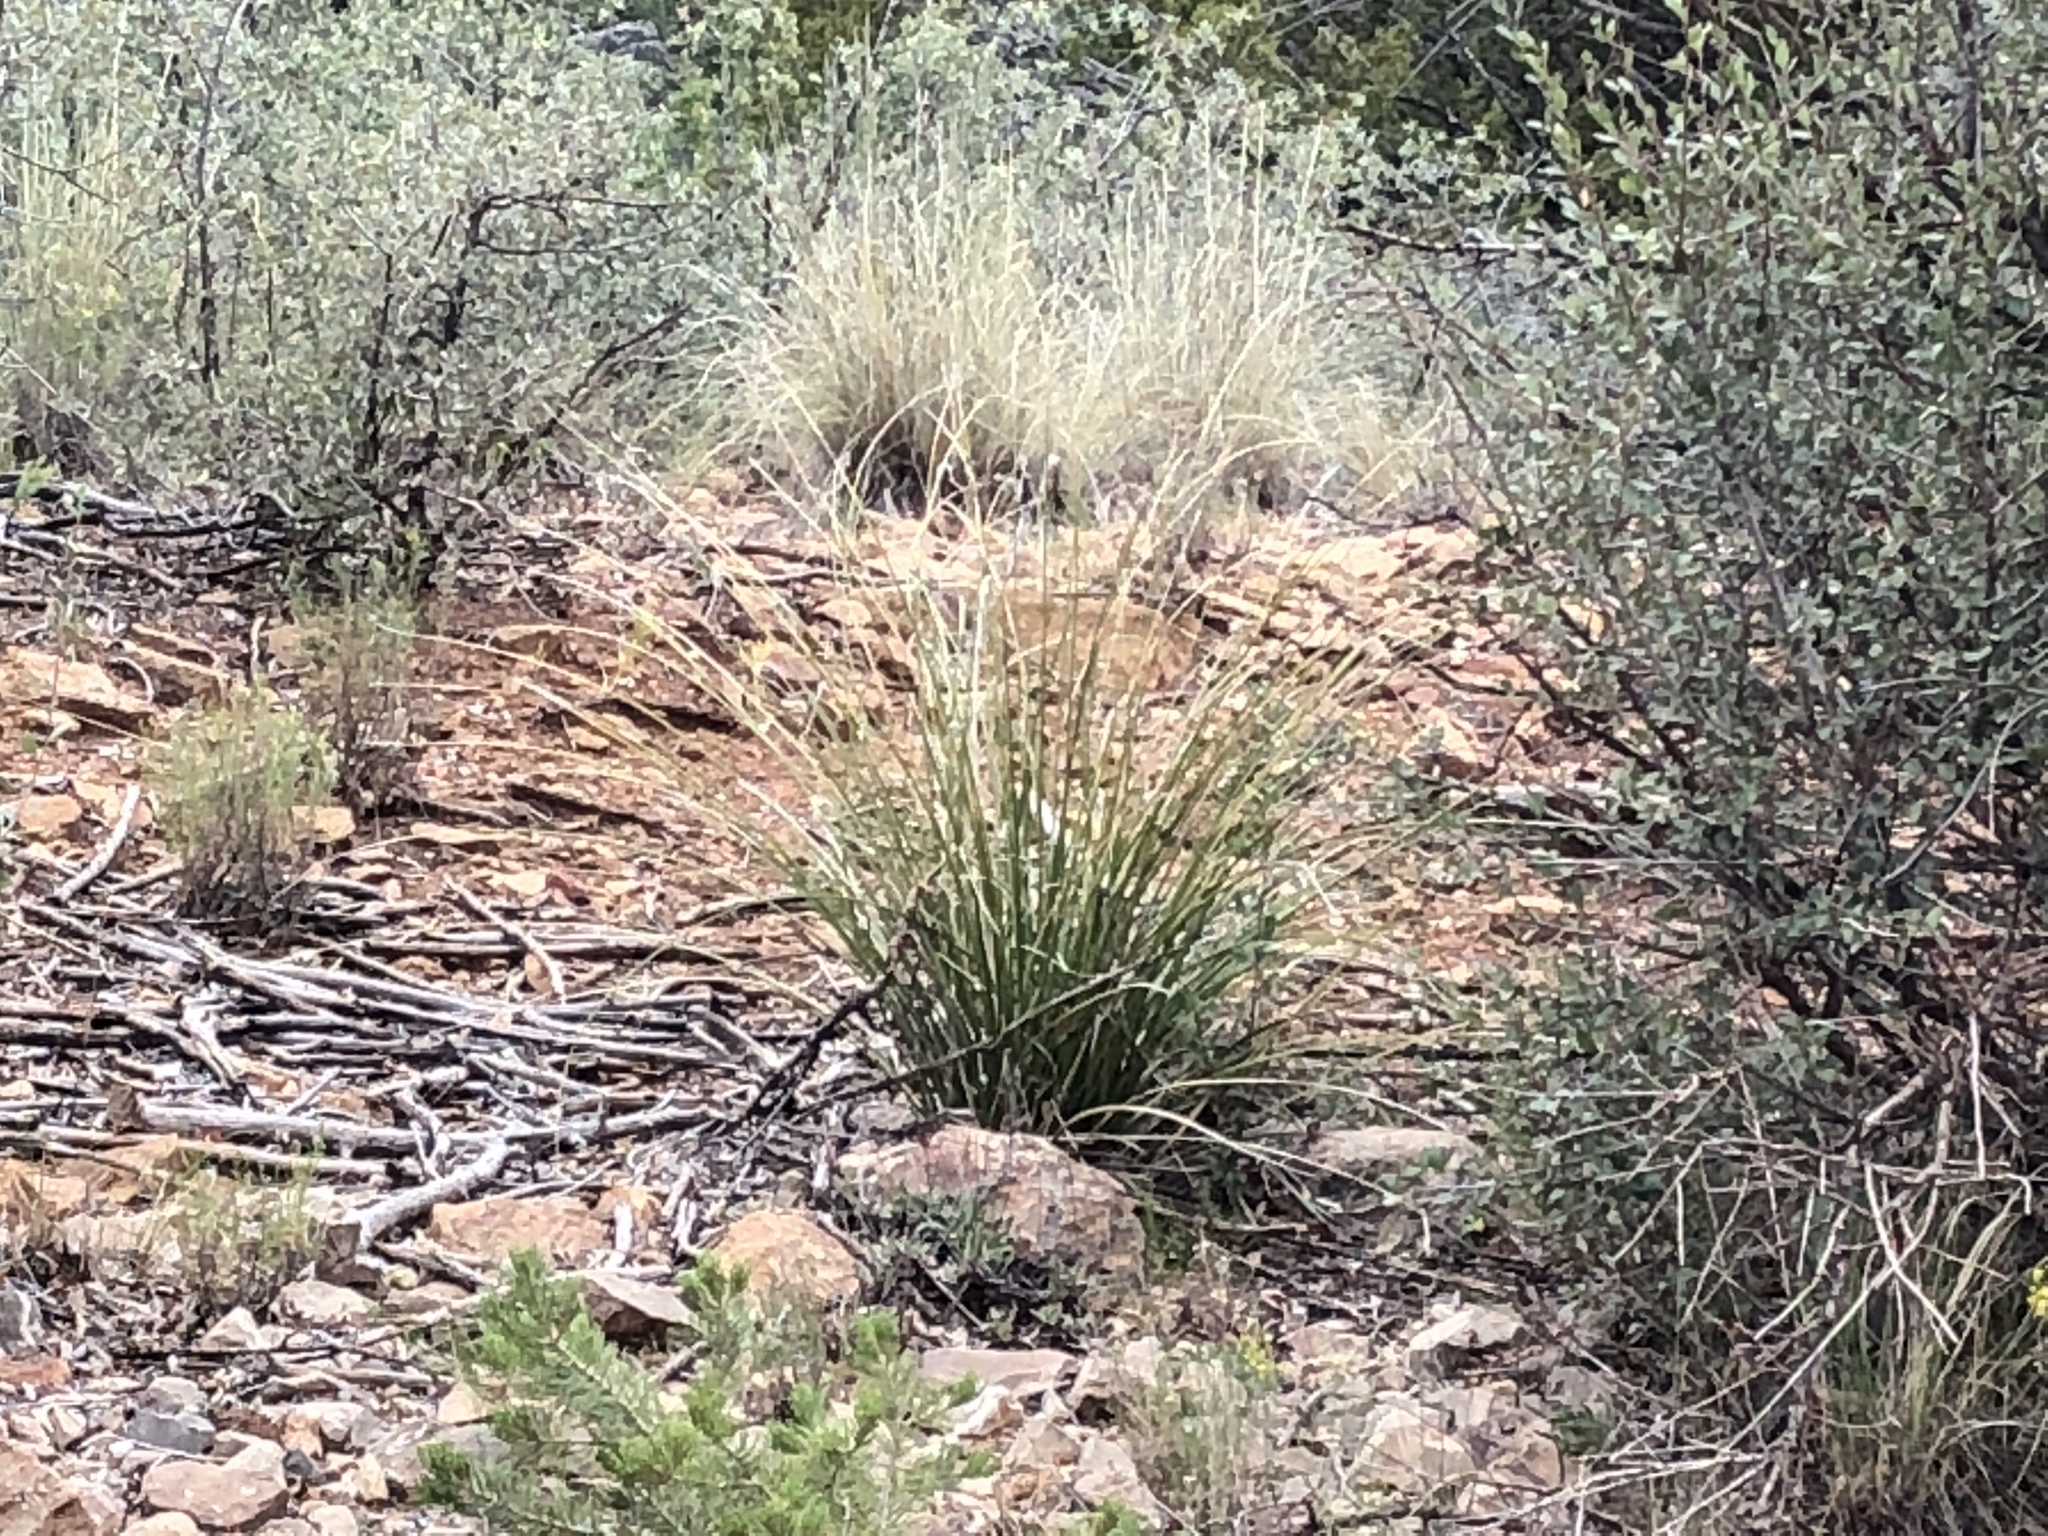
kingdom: Plantae
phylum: Tracheophyta
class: Liliopsida
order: Asparagales
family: Asparagaceae
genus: Nolina
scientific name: Nolina microcarpa
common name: Bear-grass
